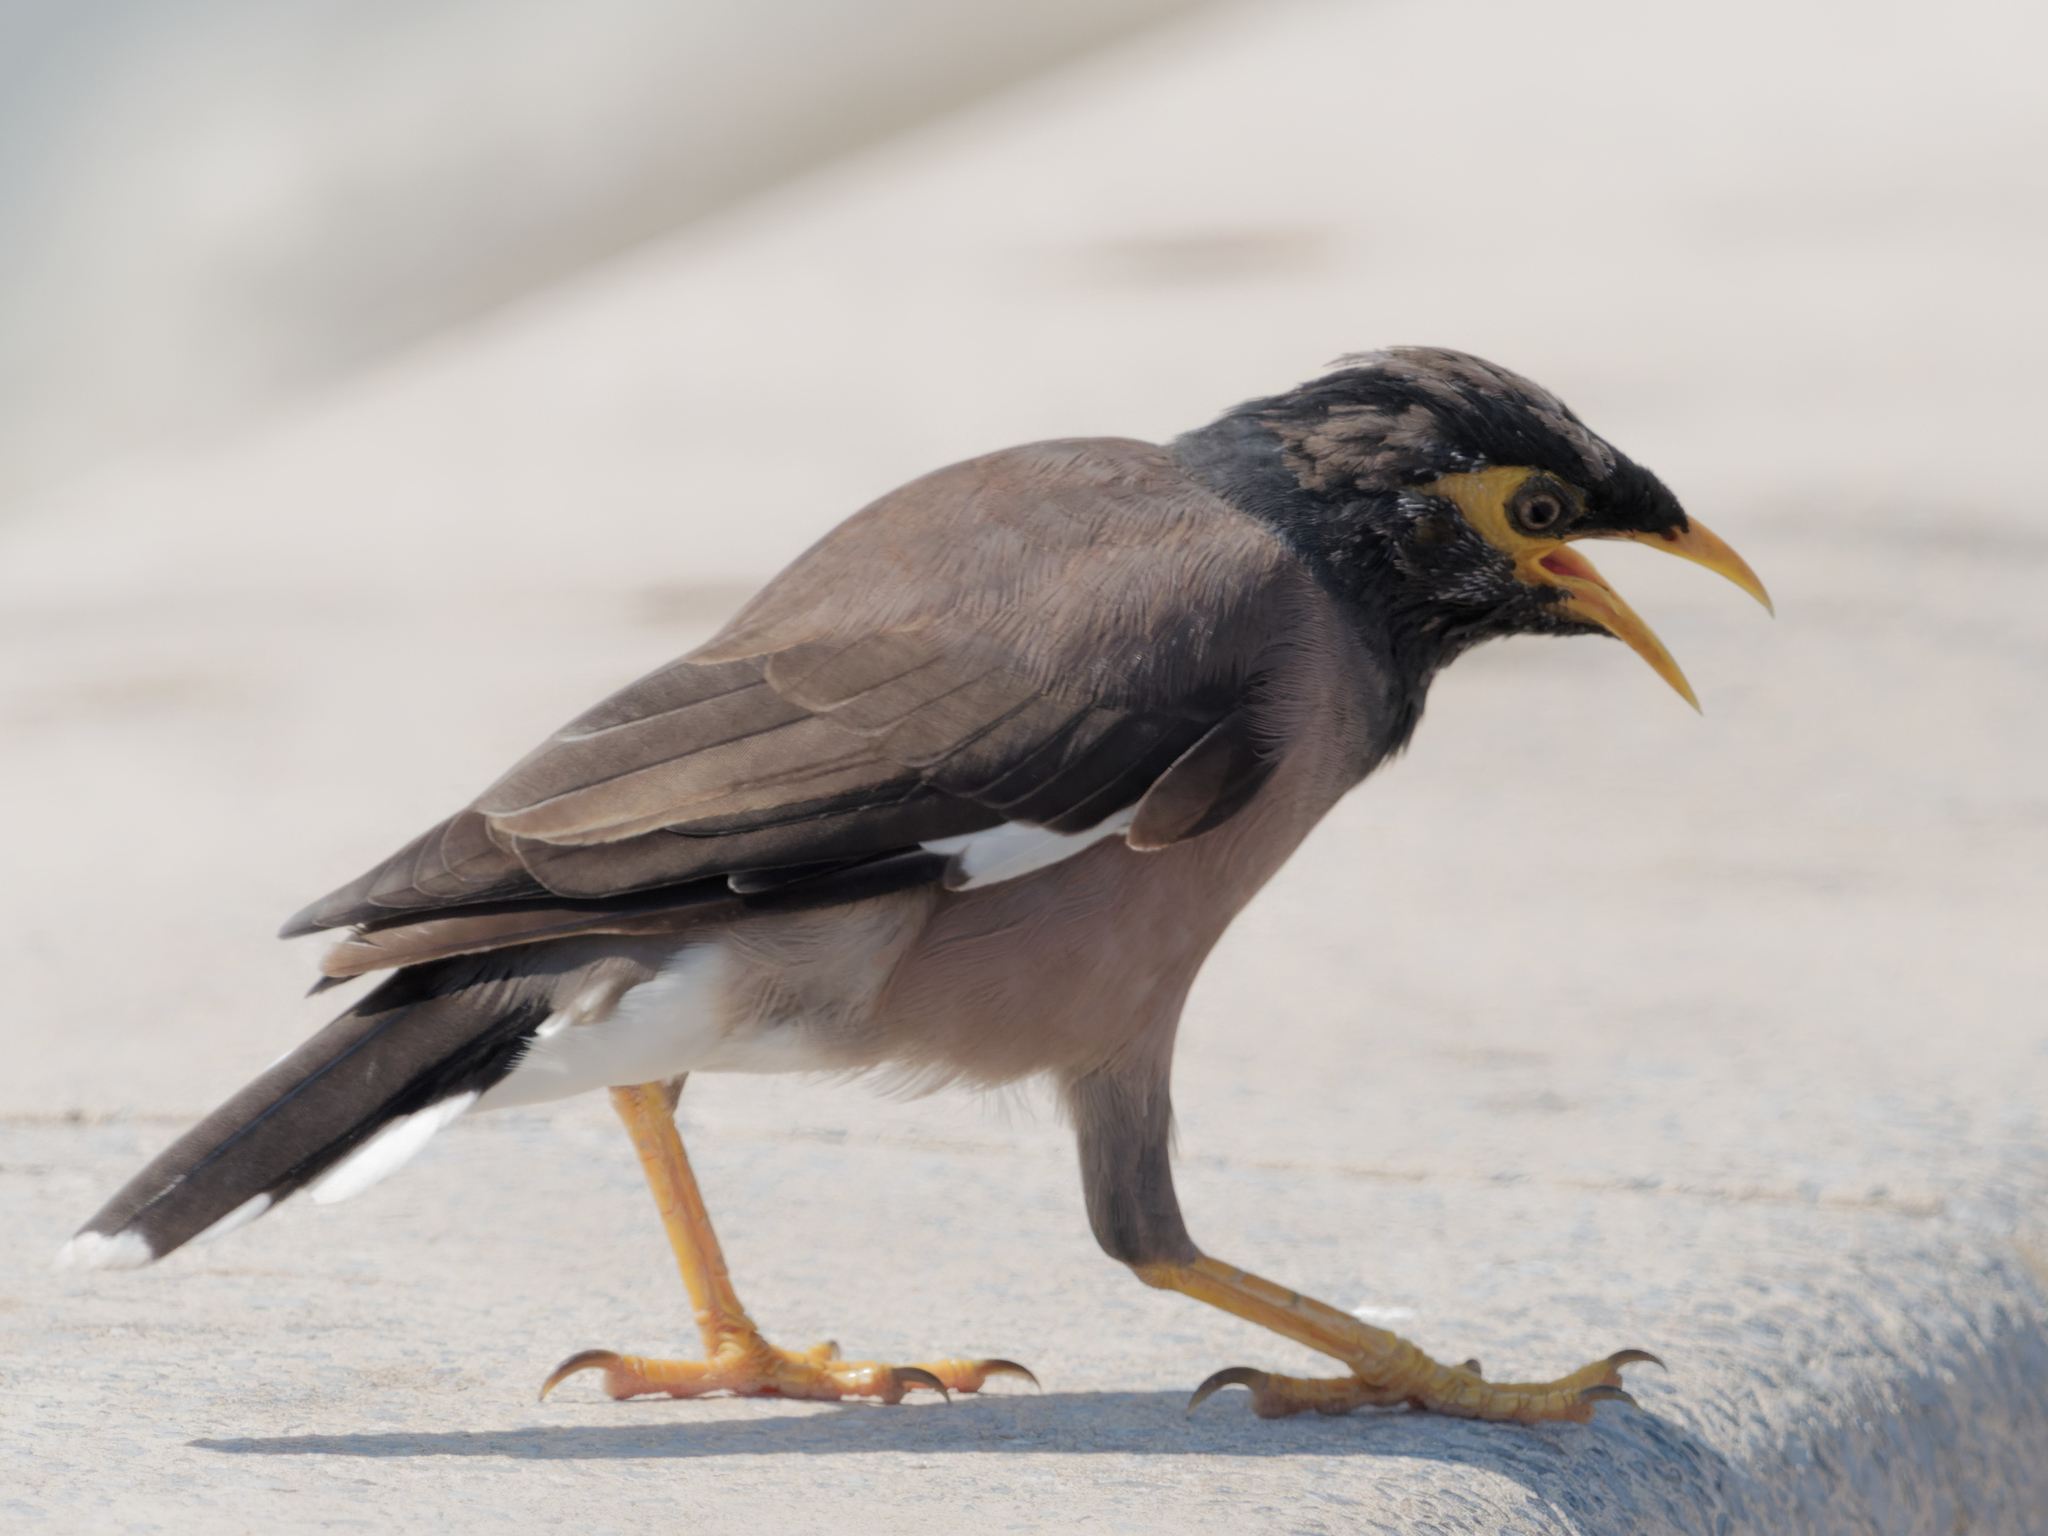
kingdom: Animalia
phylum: Chordata
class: Aves
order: Passeriformes
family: Sturnidae
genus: Acridotheres
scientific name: Acridotheres tristis
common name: Common myna
